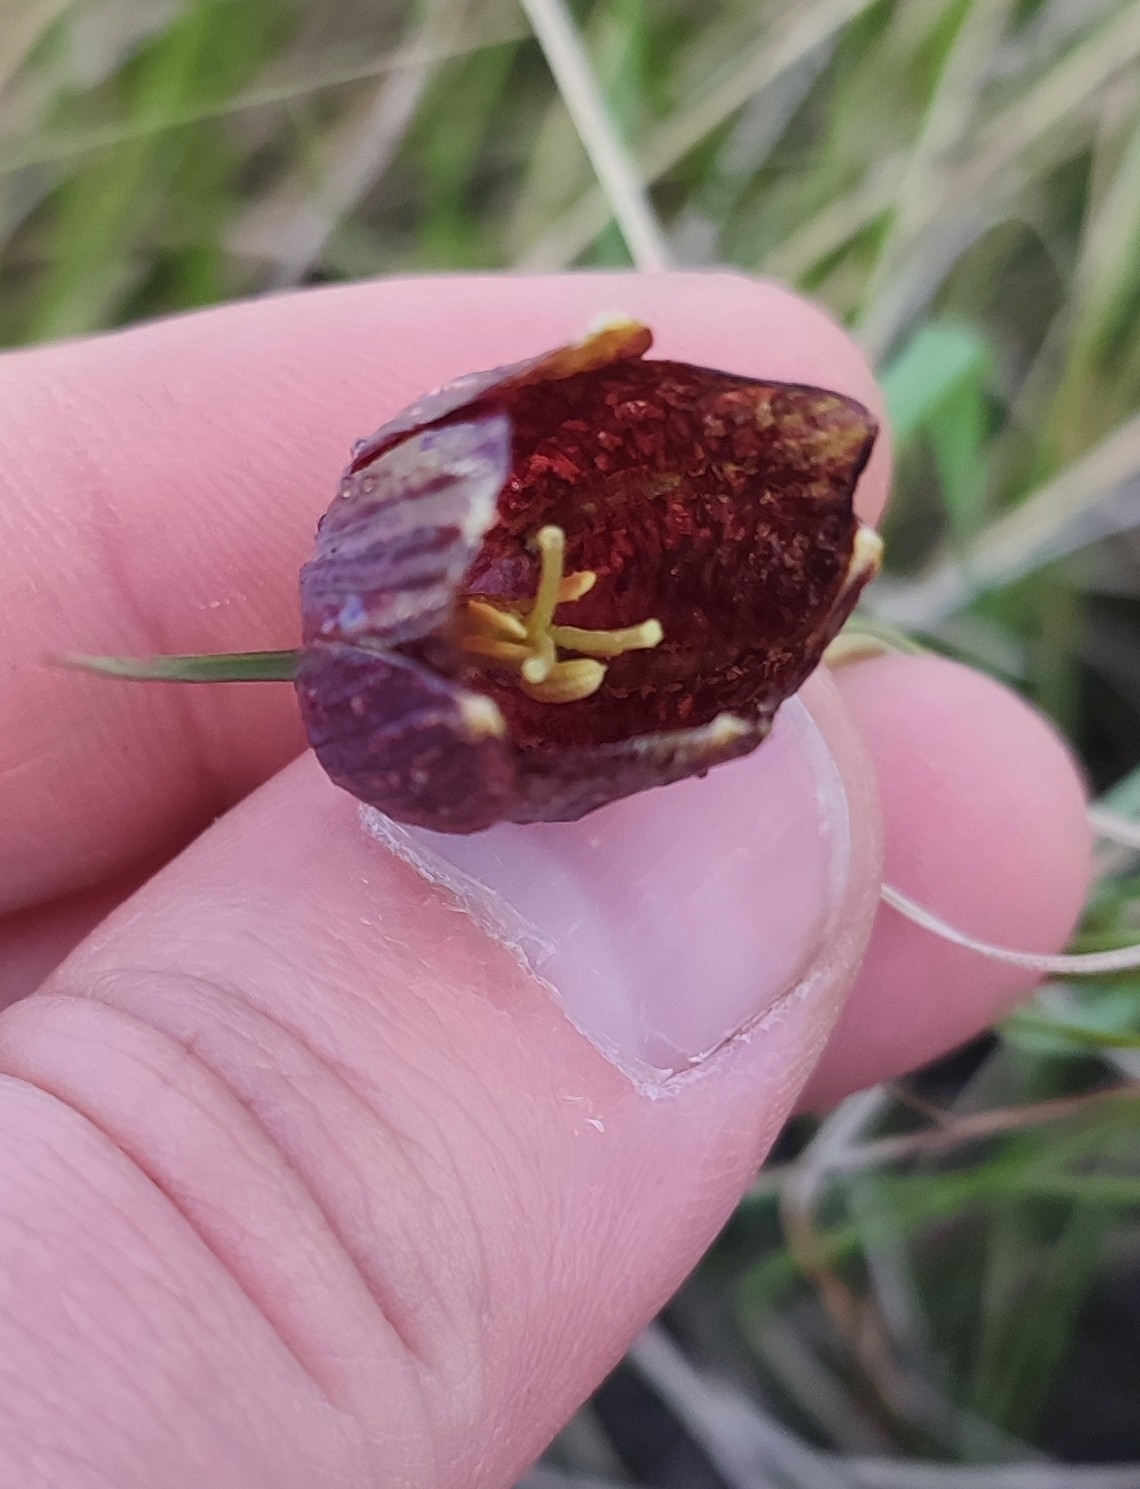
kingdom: Plantae
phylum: Tracheophyta
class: Liliopsida
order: Liliales
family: Liliaceae
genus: Fritillaria
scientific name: Fritillaria meleagroides
